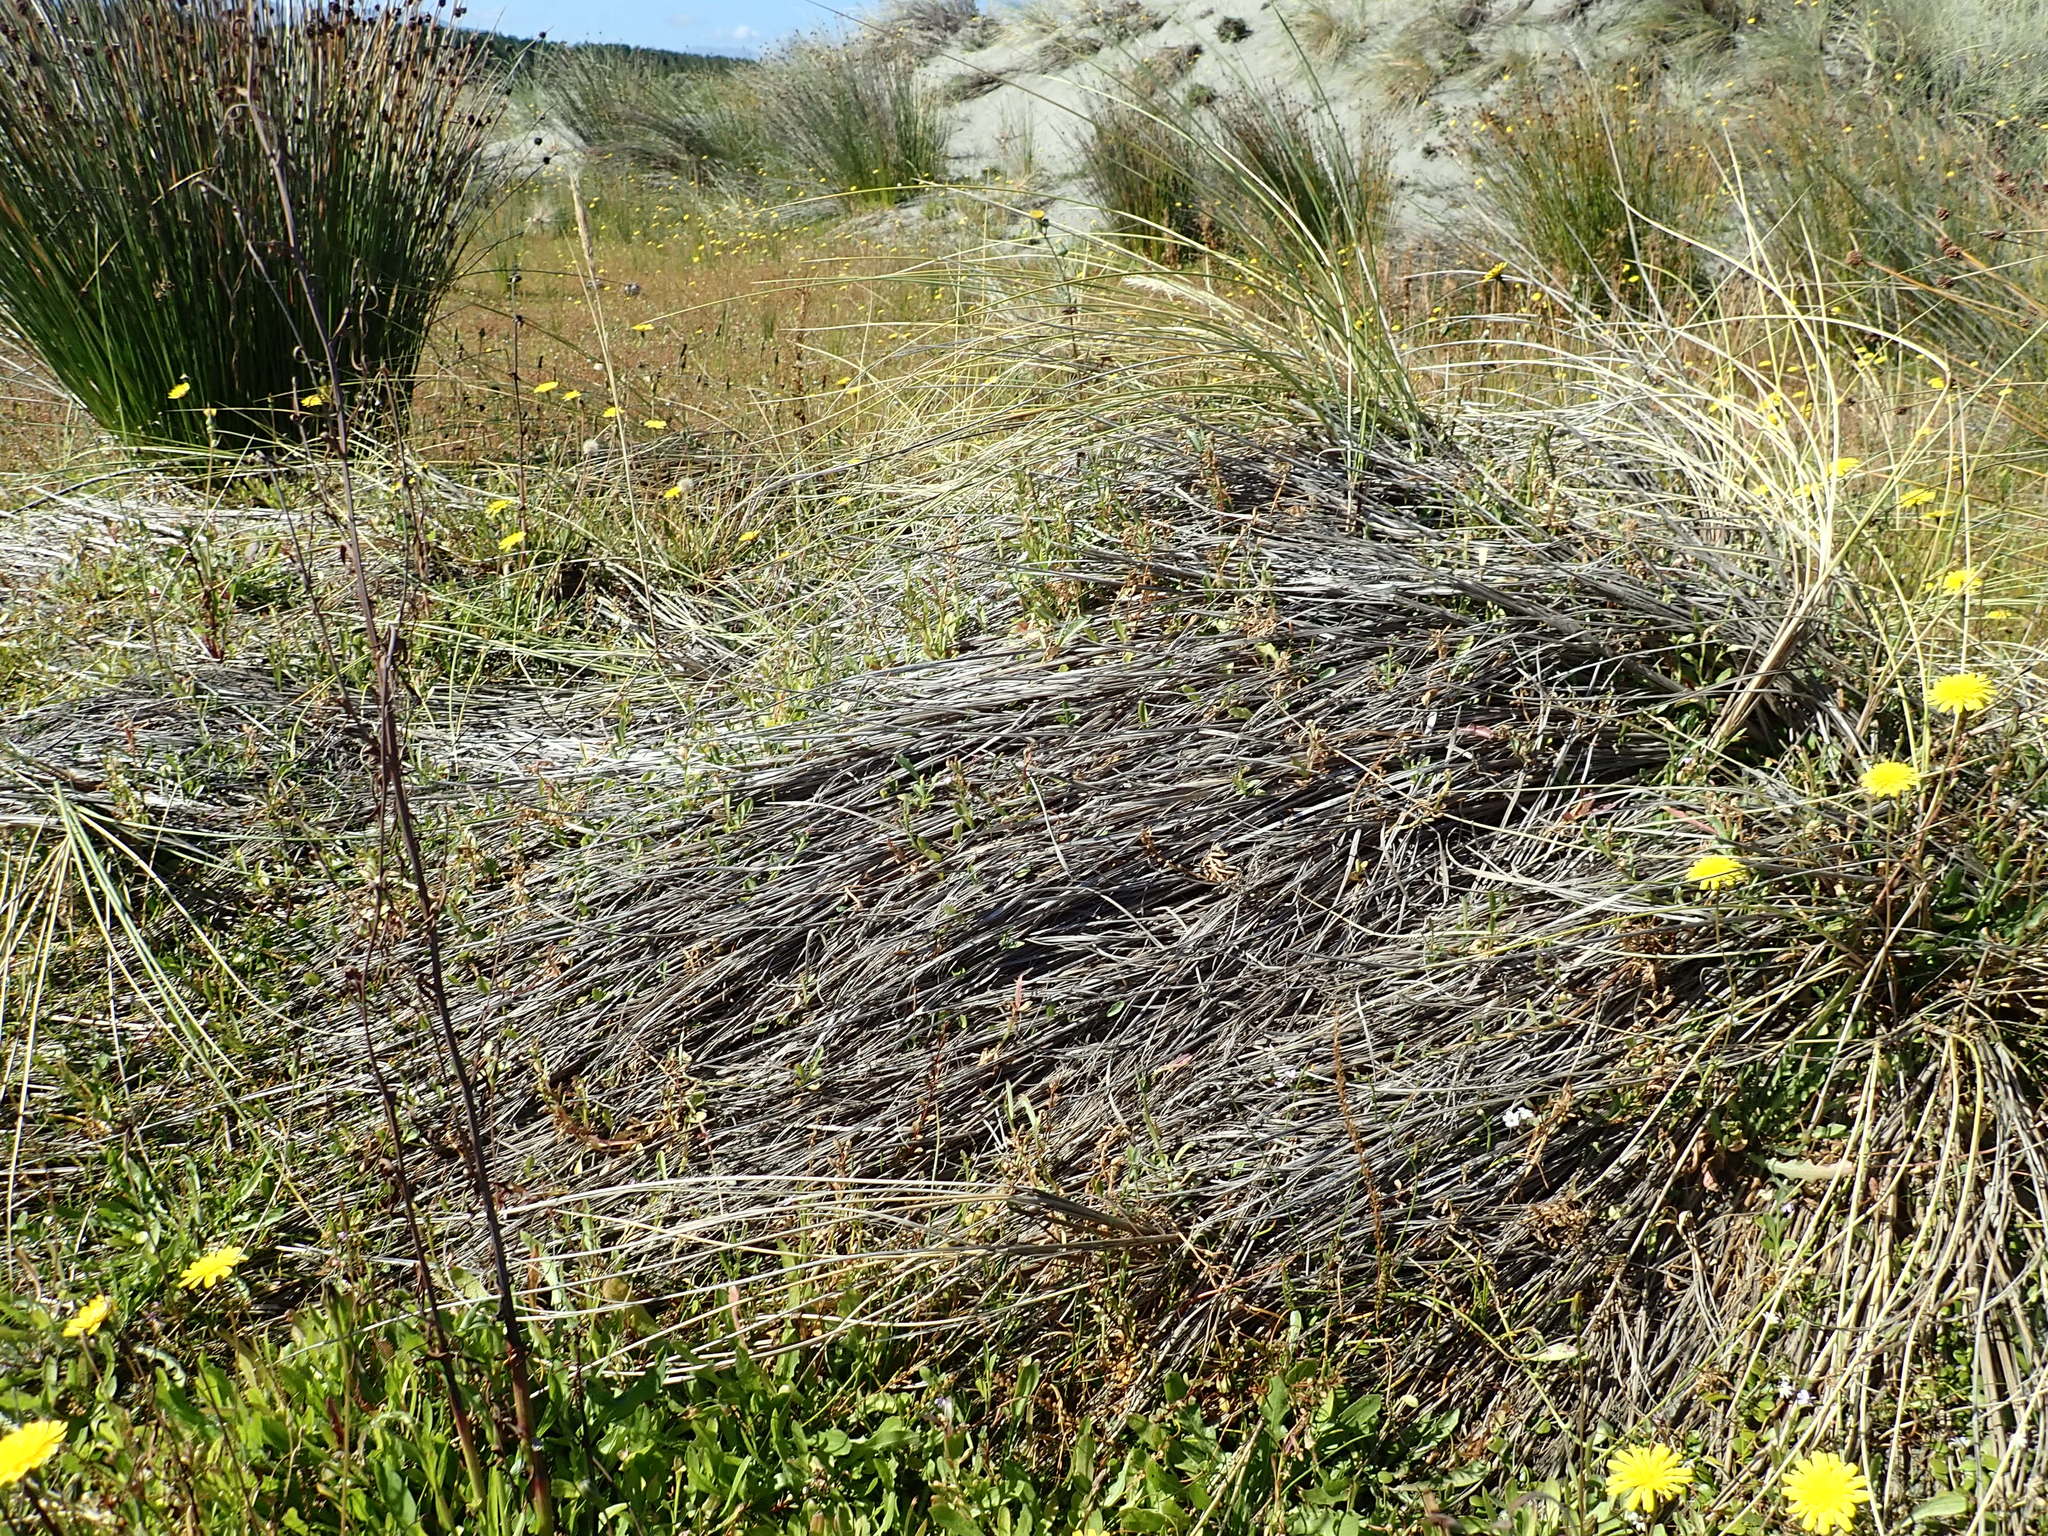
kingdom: Plantae
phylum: Tracheophyta
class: Magnoliopsida
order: Asterales
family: Campanulaceae
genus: Lobelia
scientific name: Lobelia anceps
